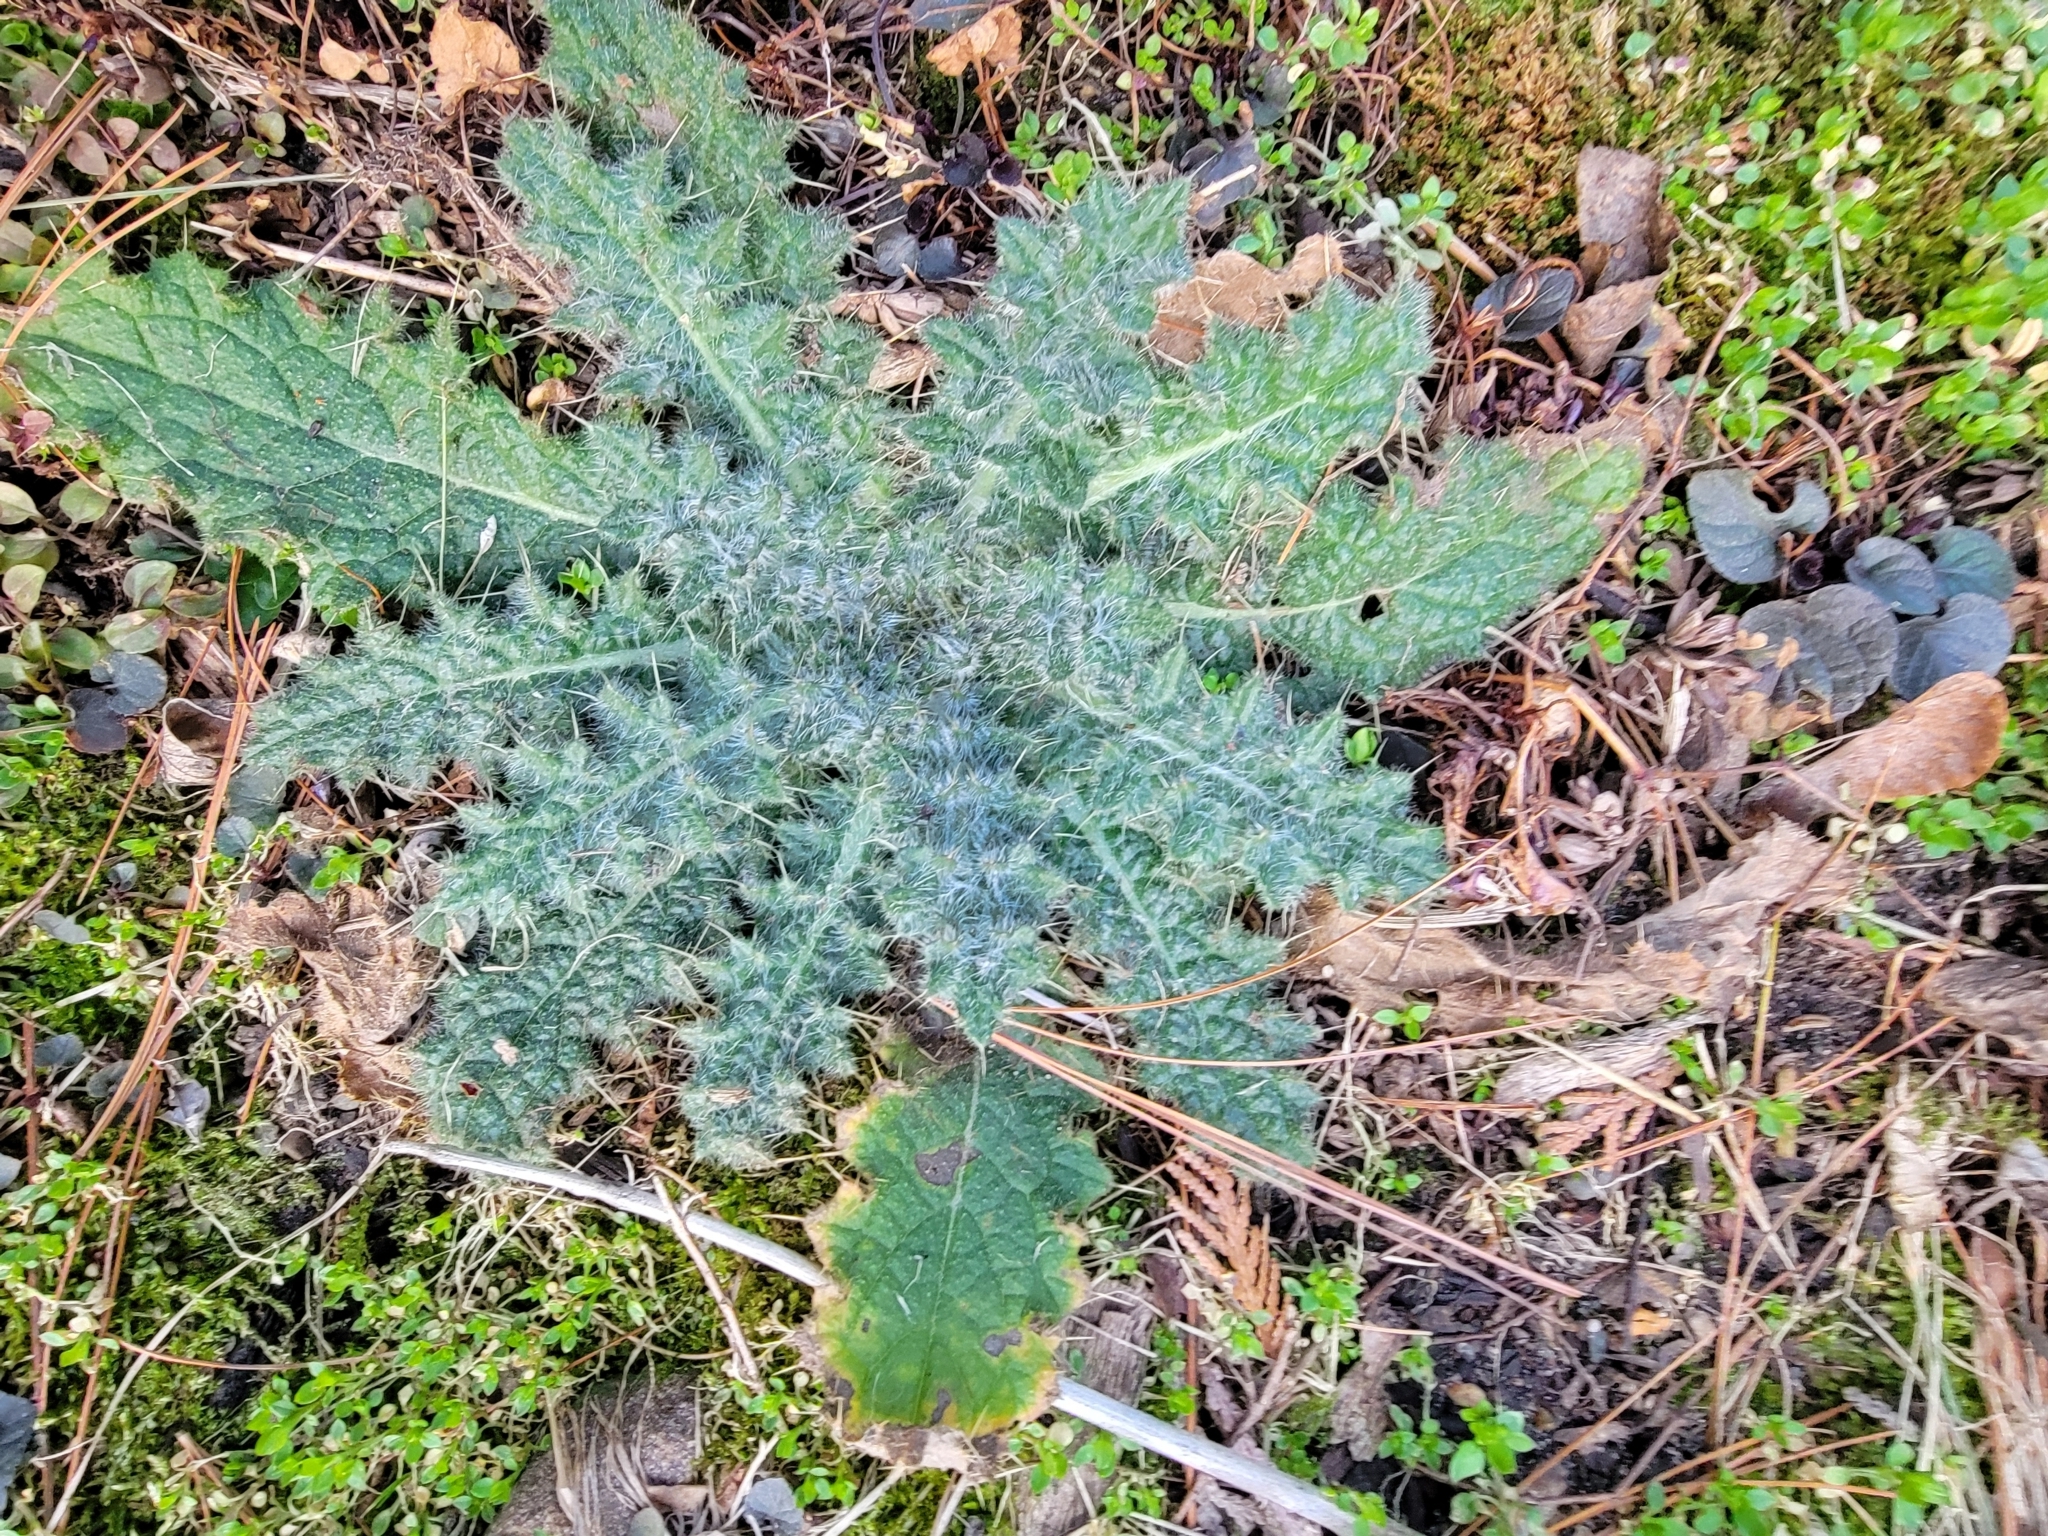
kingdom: Plantae
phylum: Tracheophyta
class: Magnoliopsida
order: Asterales
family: Asteraceae
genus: Cirsium
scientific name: Cirsium vulgare
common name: Bull thistle
